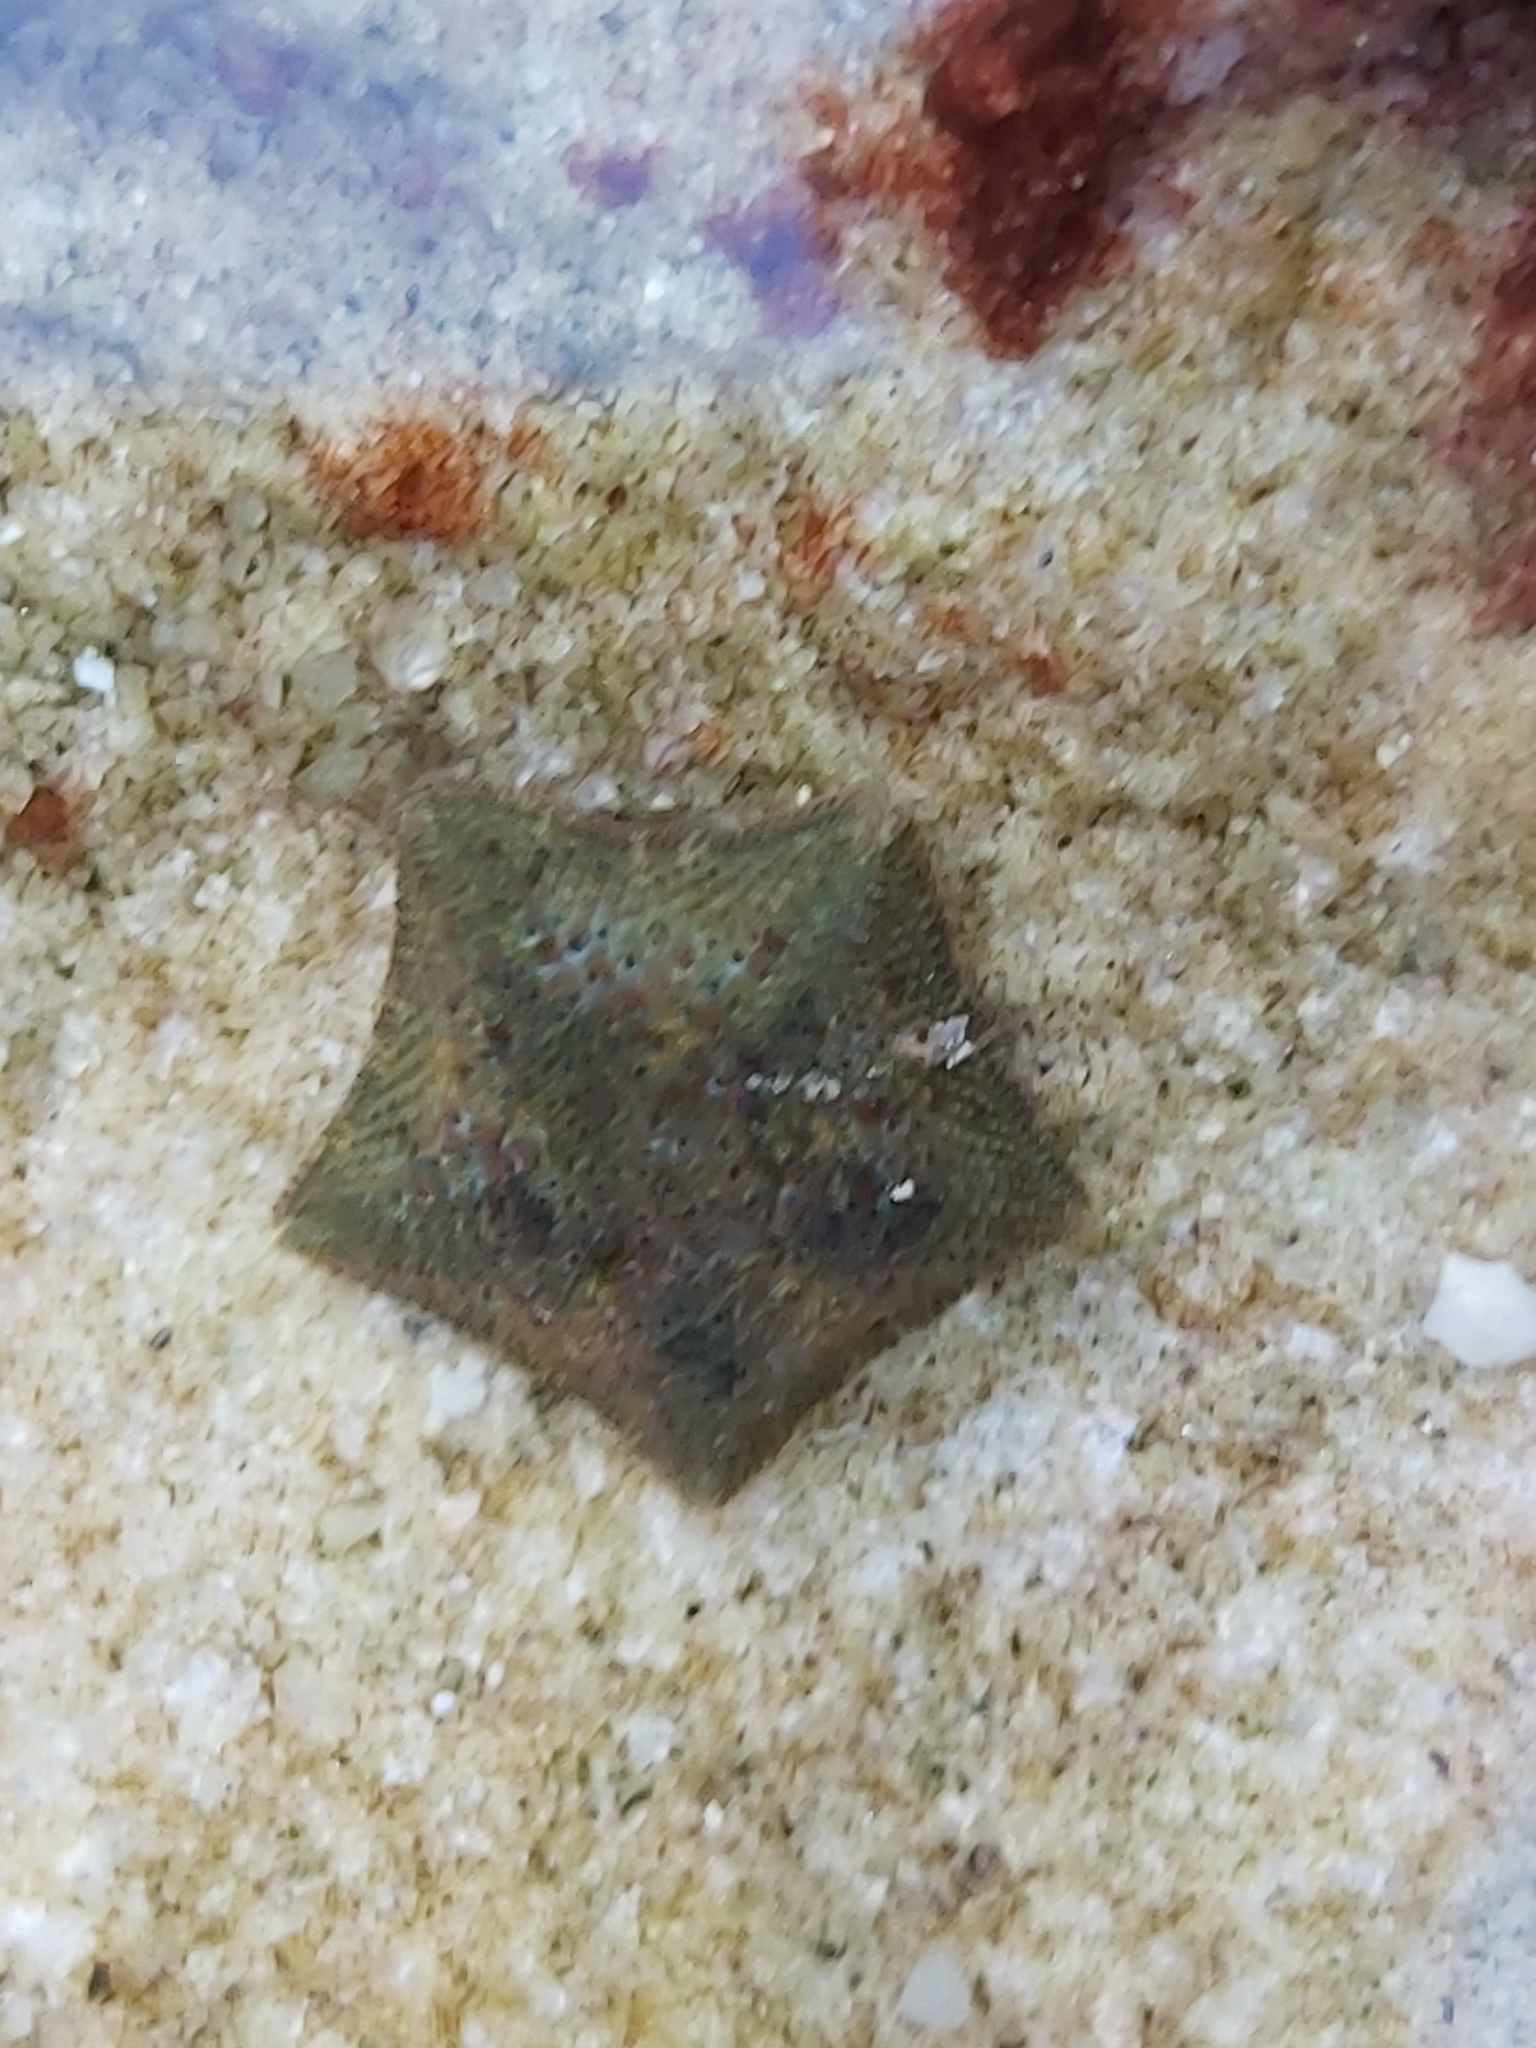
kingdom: Animalia
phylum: Echinodermata
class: Asteroidea
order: Valvatida
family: Asterinidae
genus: Parvulastra
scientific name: Parvulastra exigua
